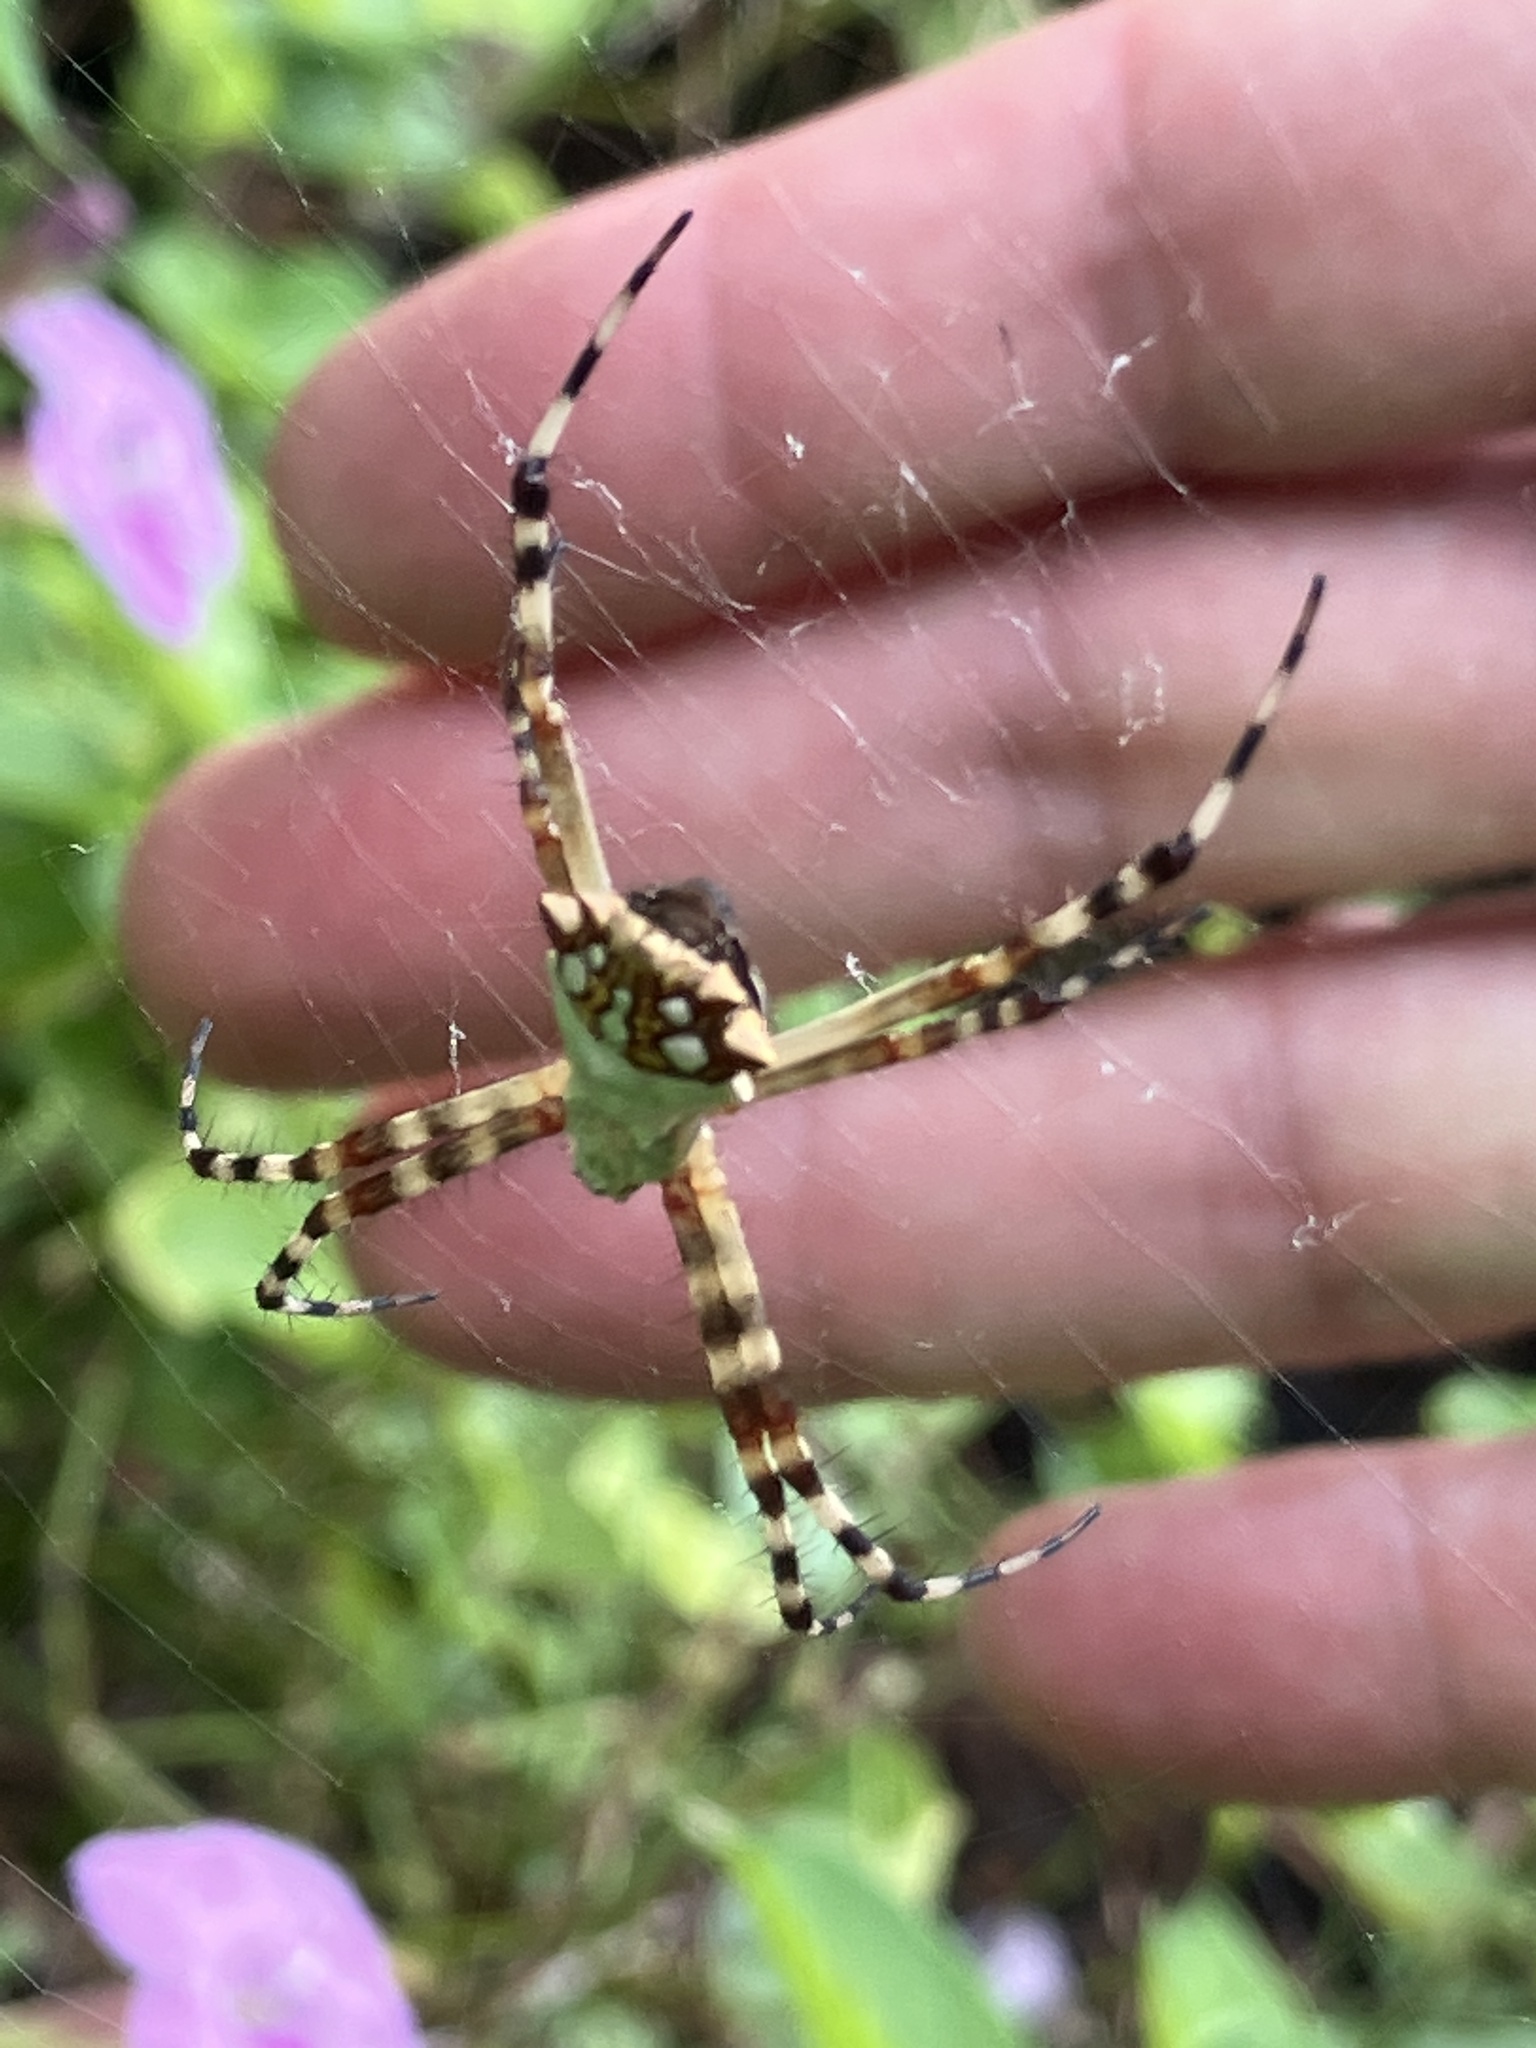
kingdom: Animalia
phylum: Arthropoda
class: Arachnida
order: Araneae
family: Araneidae
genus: Argiope
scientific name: Argiope argentata
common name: Orb weavers
